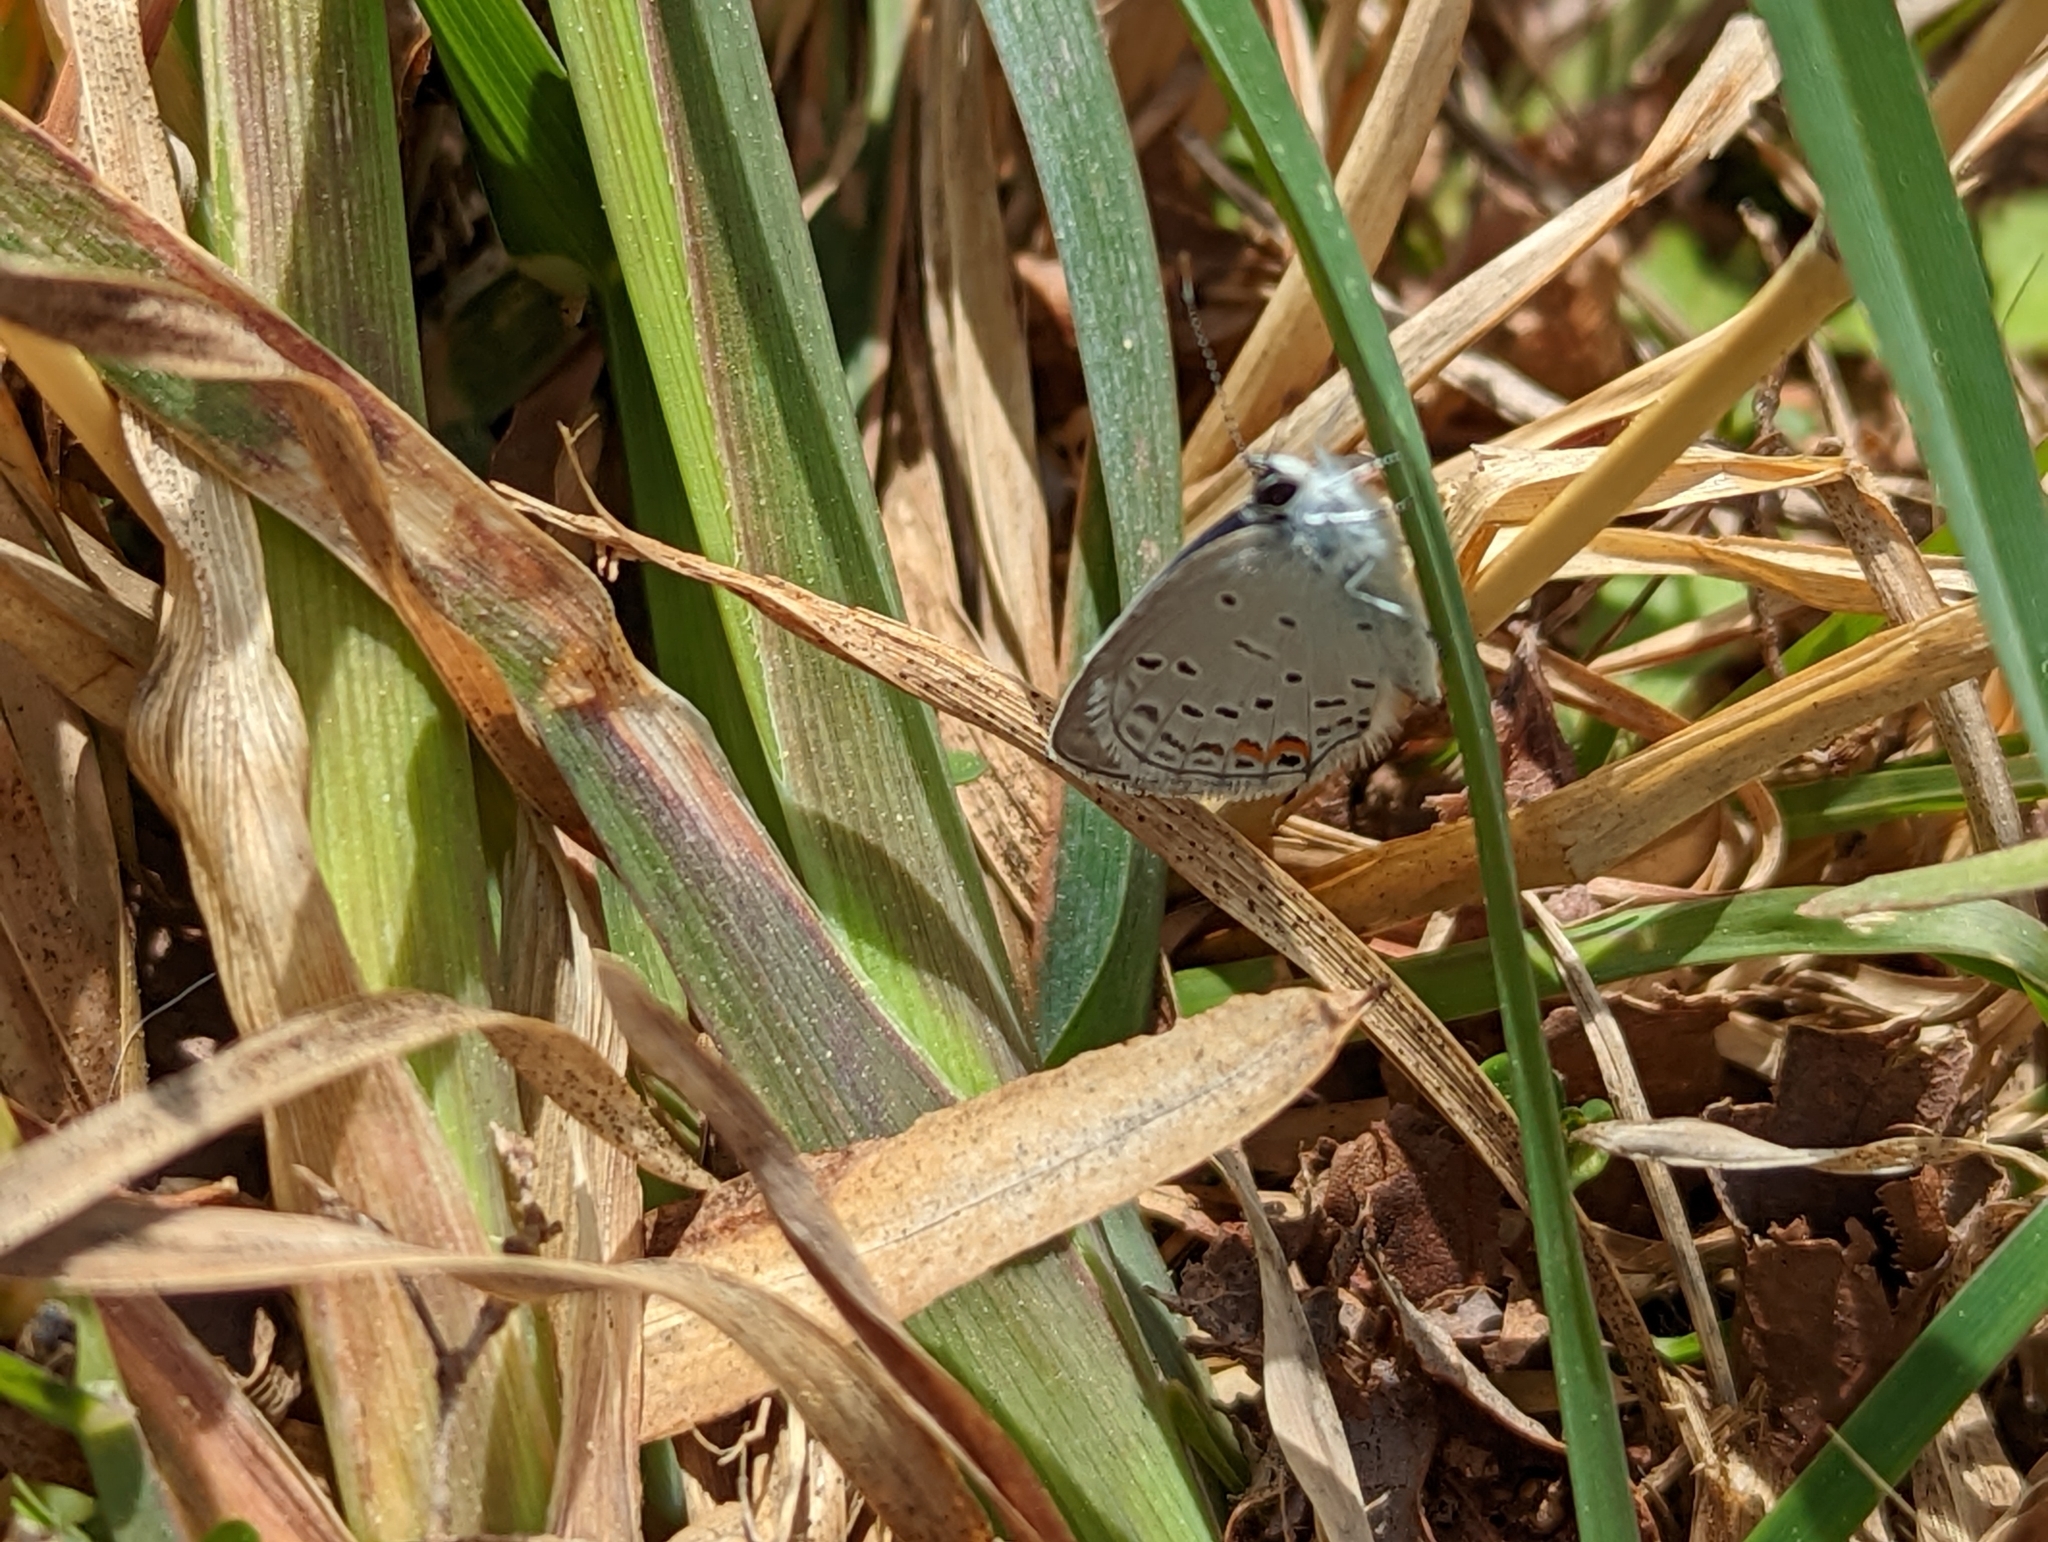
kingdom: Animalia
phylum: Arthropoda
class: Insecta
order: Lepidoptera
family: Lycaenidae
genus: Elkalyce
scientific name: Elkalyce comyntas
